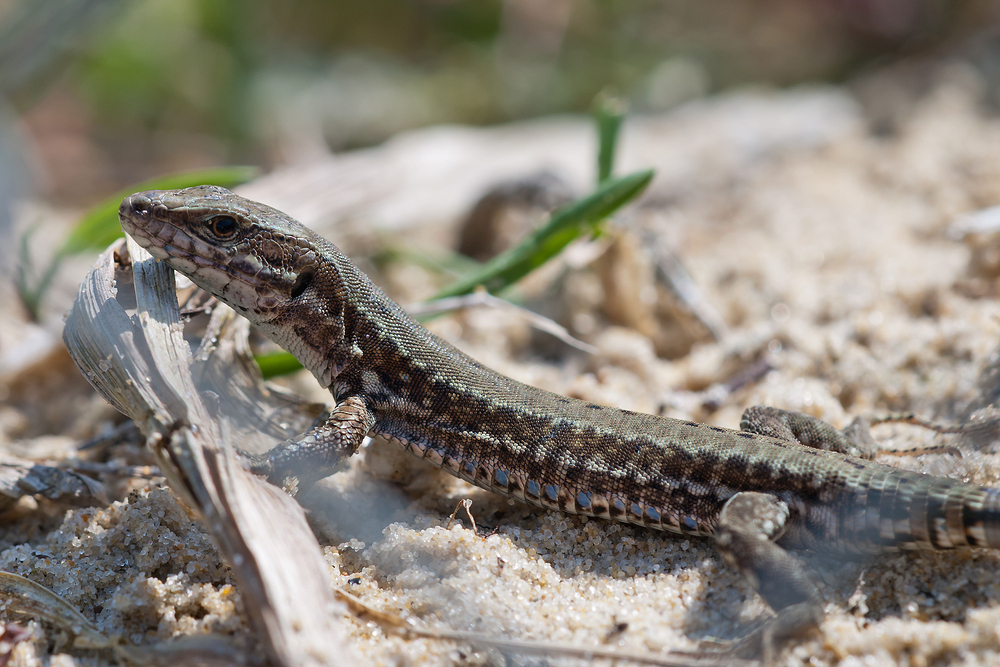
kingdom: Animalia
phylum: Chordata
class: Squamata
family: Lacertidae
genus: Podarcis
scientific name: Podarcis muralis
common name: Common wall lizard
